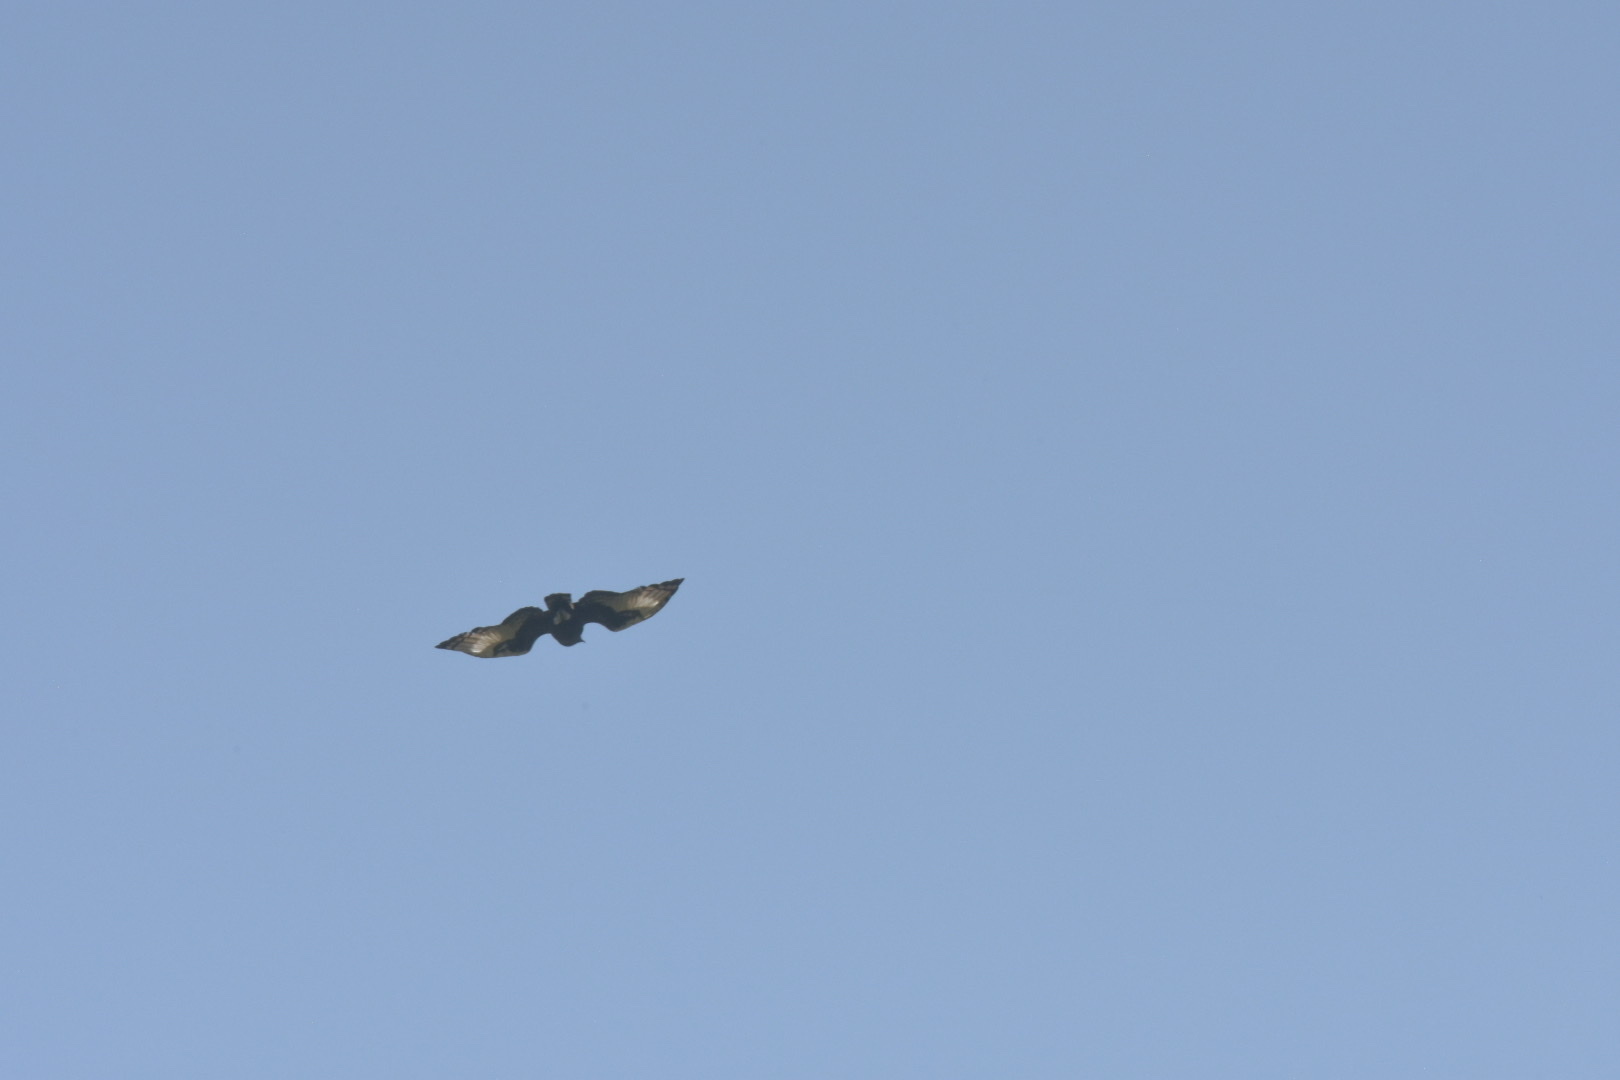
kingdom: Animalia
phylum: Chordata
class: Aves
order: Accipitriformes
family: Accipitridae
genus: Lophaetus
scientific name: Lophaetus occipitalis
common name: Long-crested eagle
